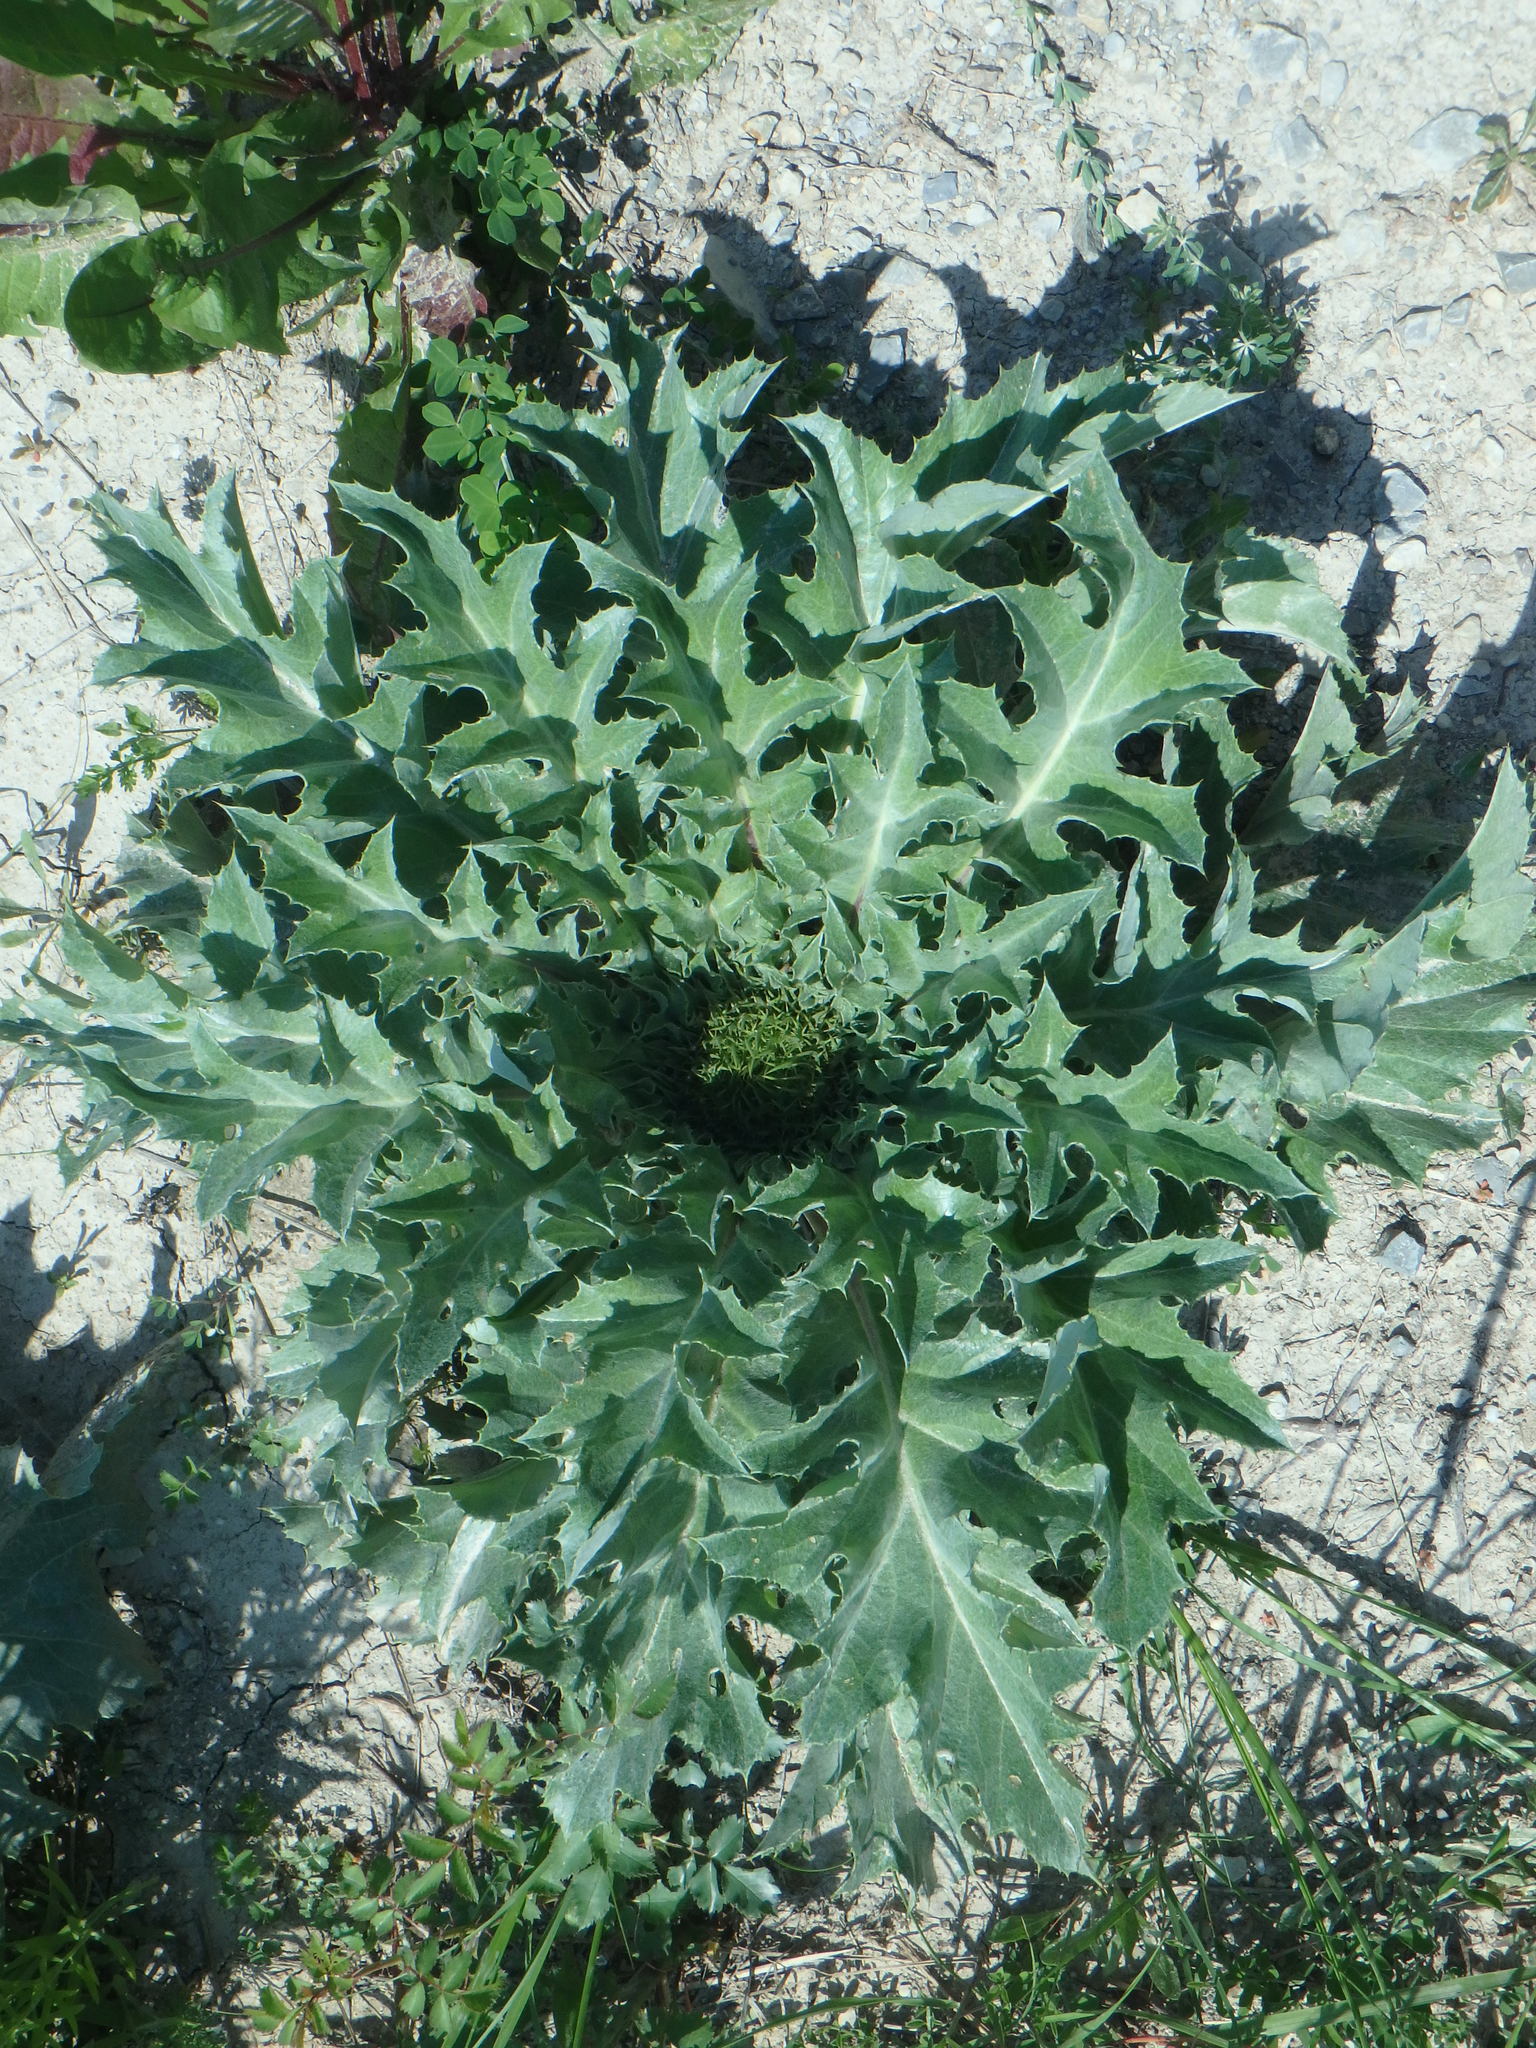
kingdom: Plantae
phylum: Tracheophyta
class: Magnoliopsida
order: Asterales
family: Asteraceae
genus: Carlina
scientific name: Carlina acanthifolia
